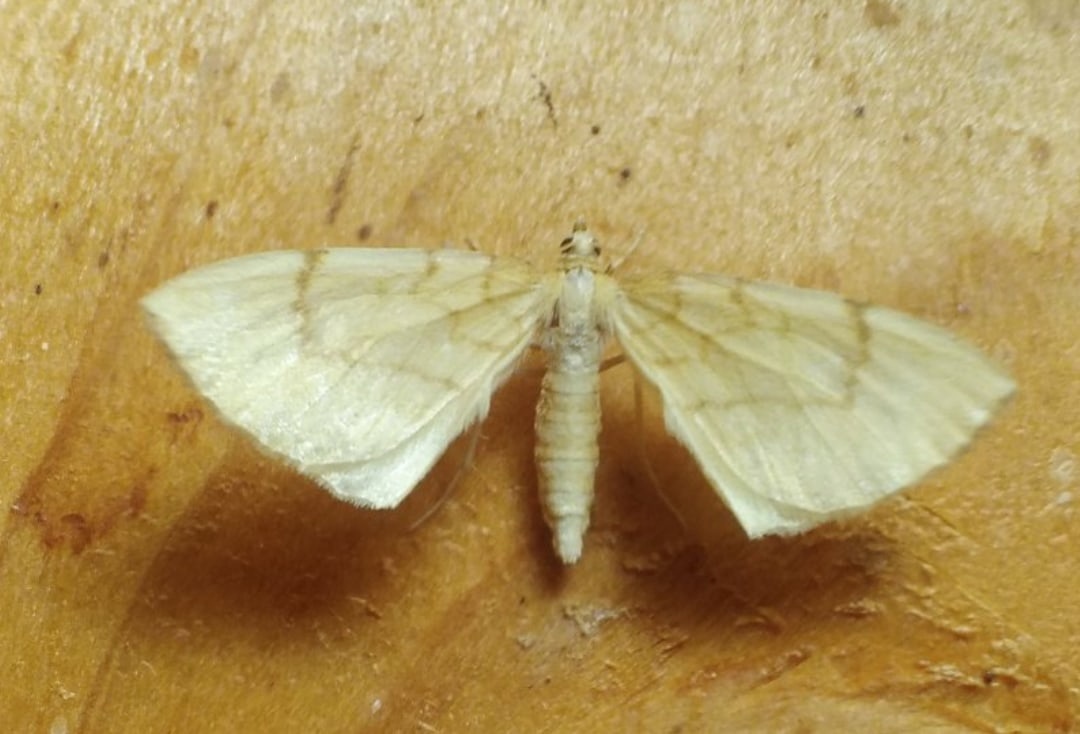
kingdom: Animalia
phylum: Arthropoda
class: Insecta
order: Lepidoptera
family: Geometridae
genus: Eulithis
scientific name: Eulithis pyraliata
